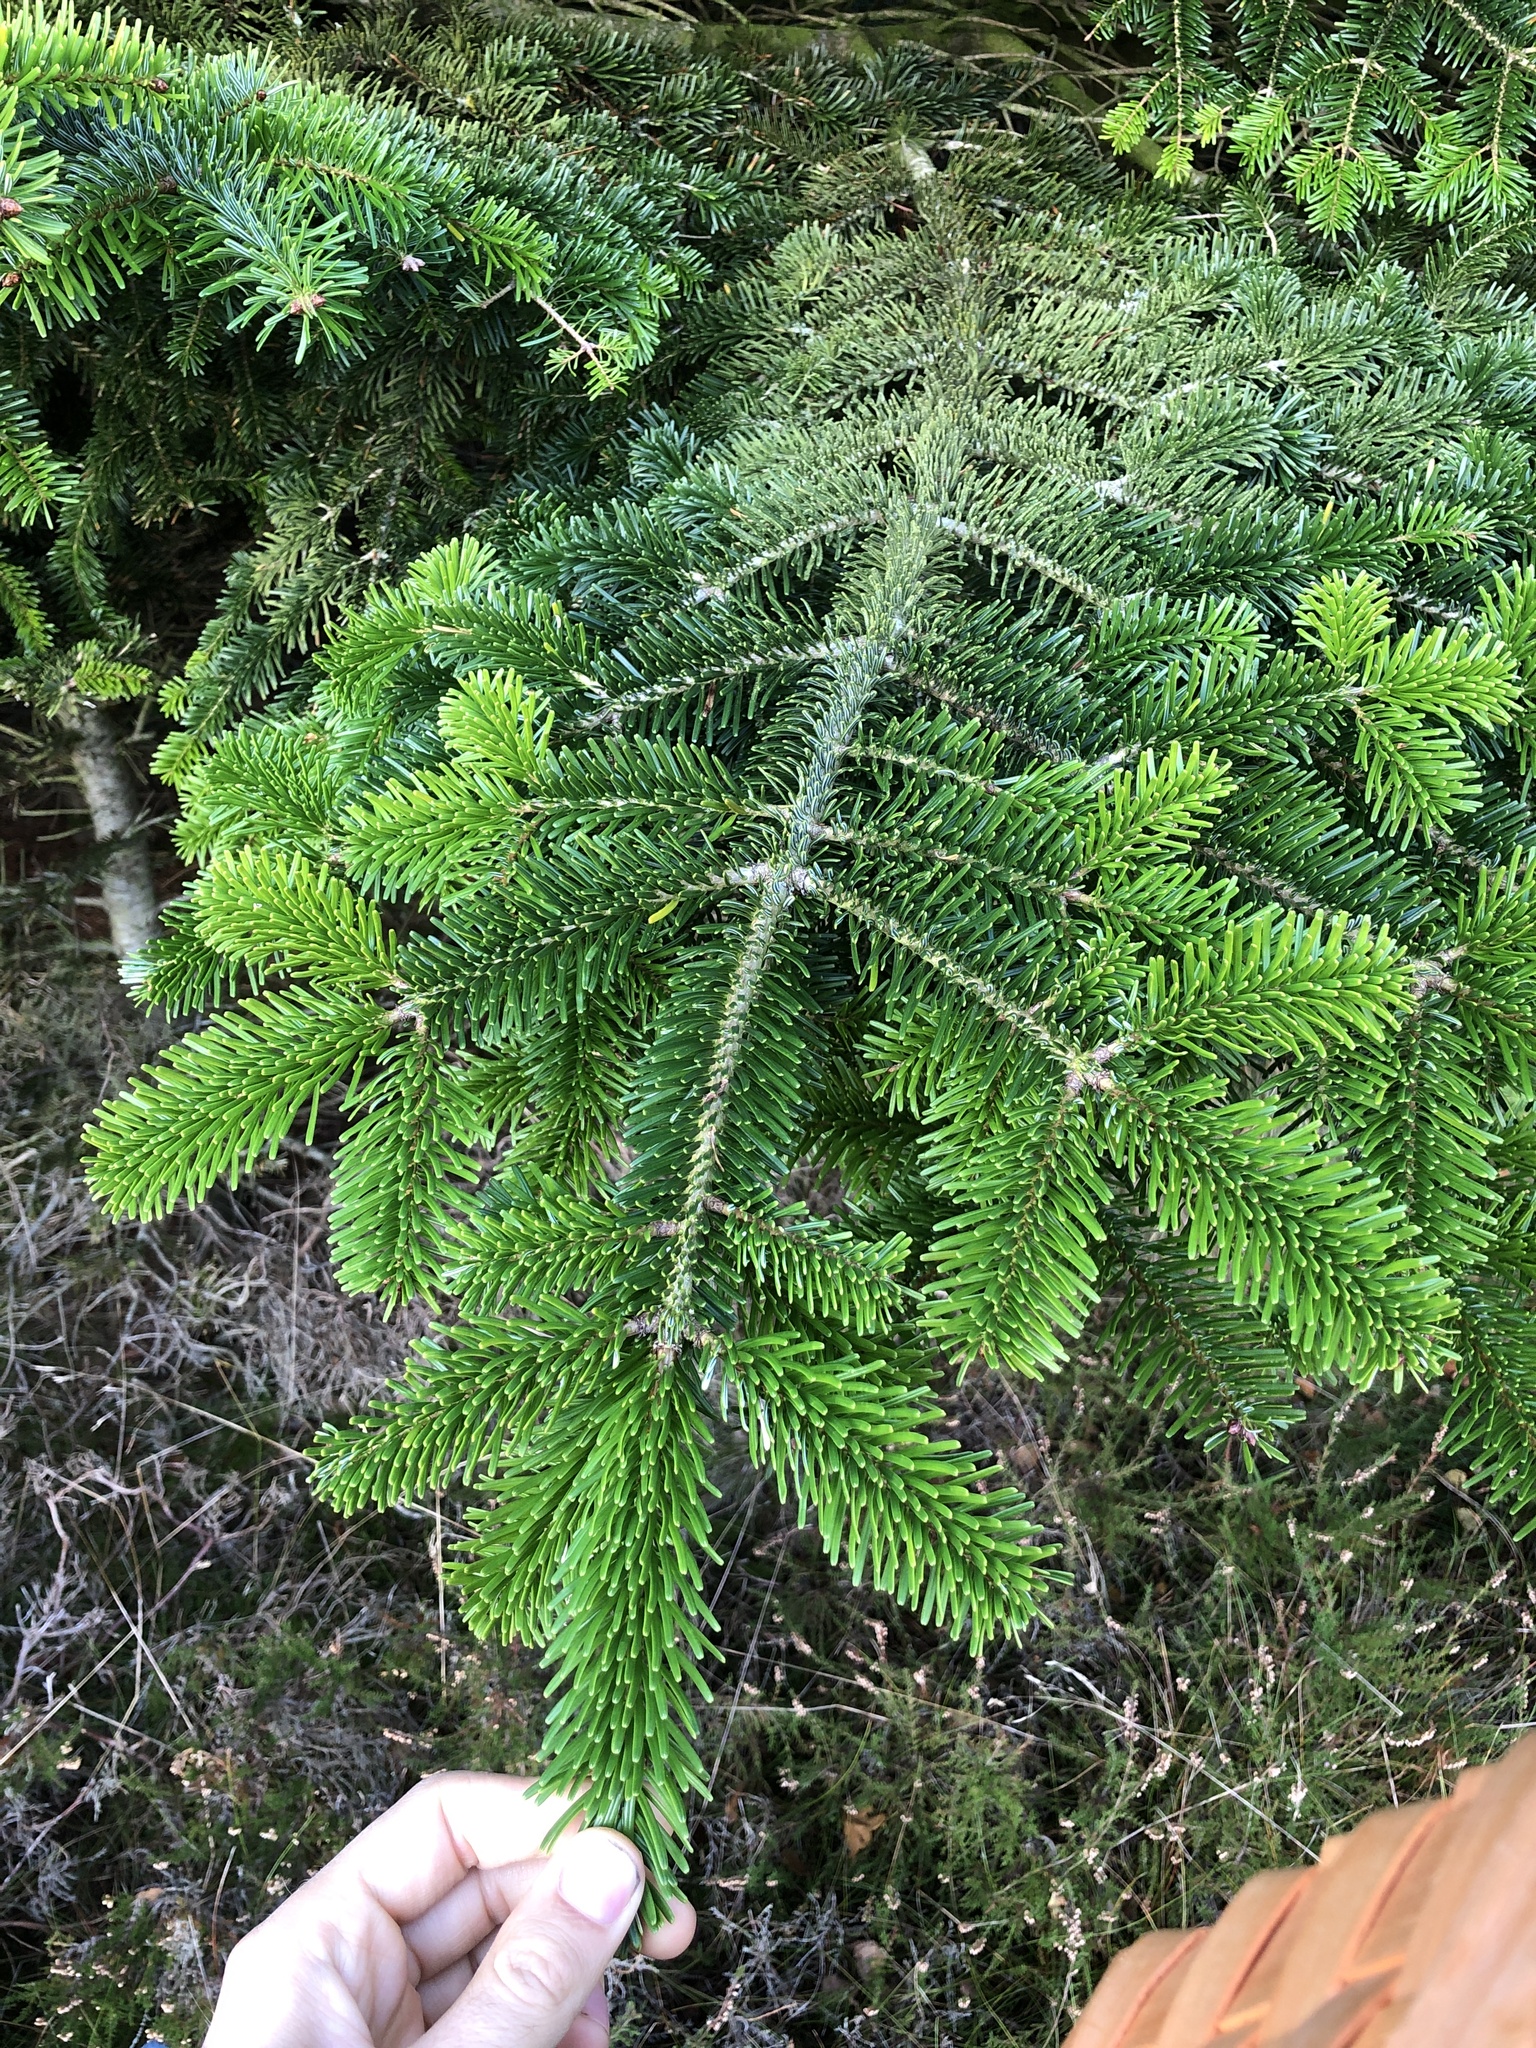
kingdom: Plantae
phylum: Tracheophyta
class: Pinopsida
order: Pinales
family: Pinaceae
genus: Abies
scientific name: Abies nordmanniana
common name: Caucasian fir
